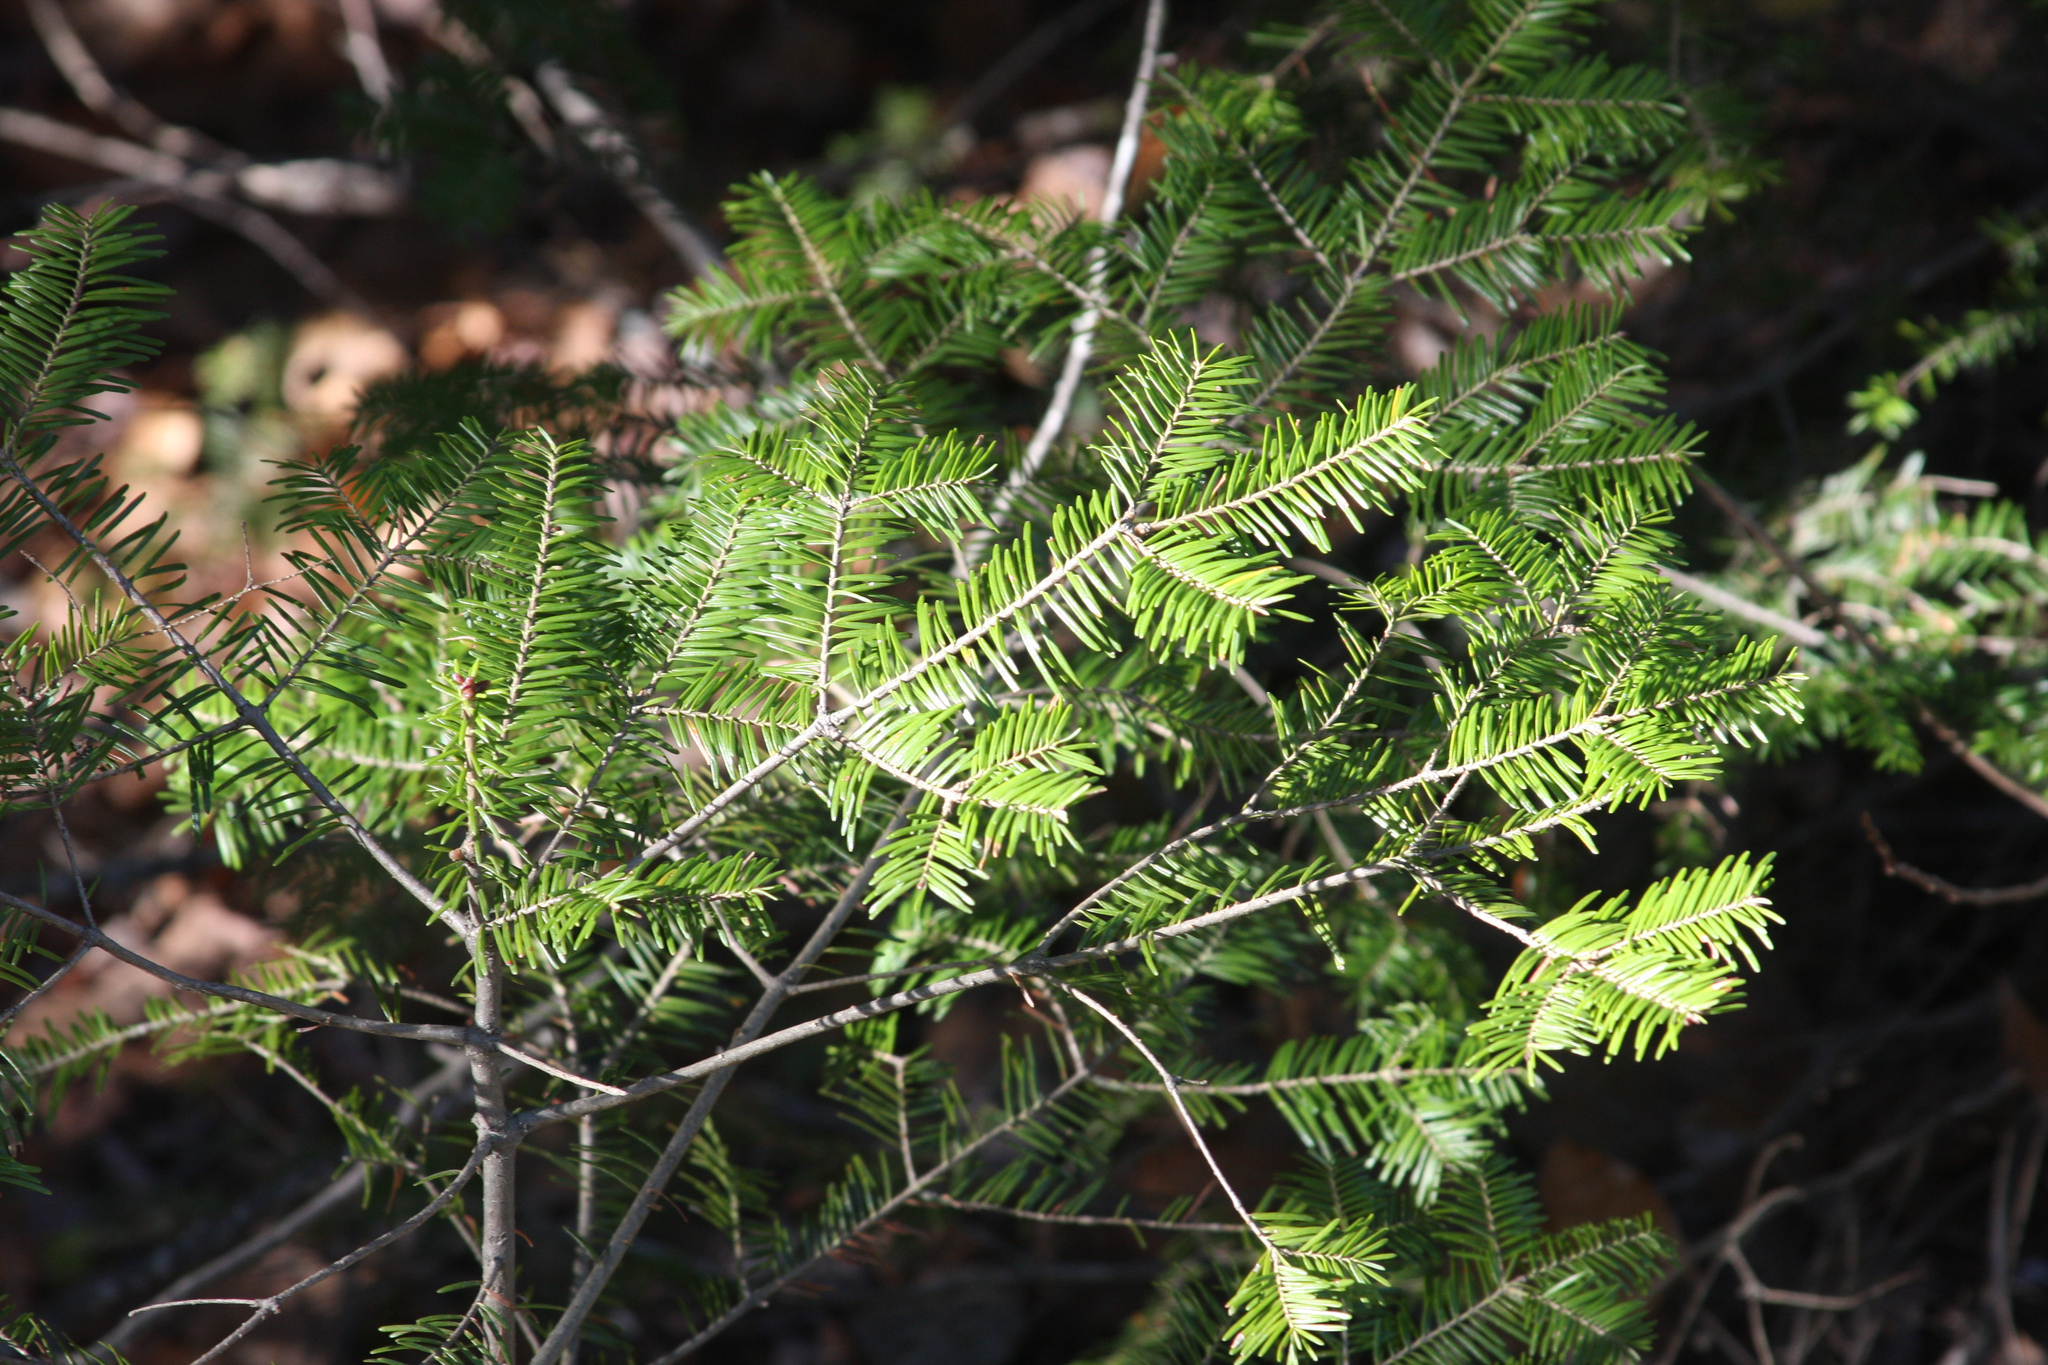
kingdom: Plantae
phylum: Tracheophyta
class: Pinopsida
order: Pinales
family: Pinaceae
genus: Abies
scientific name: Abies balsamea
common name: Balsam fir
